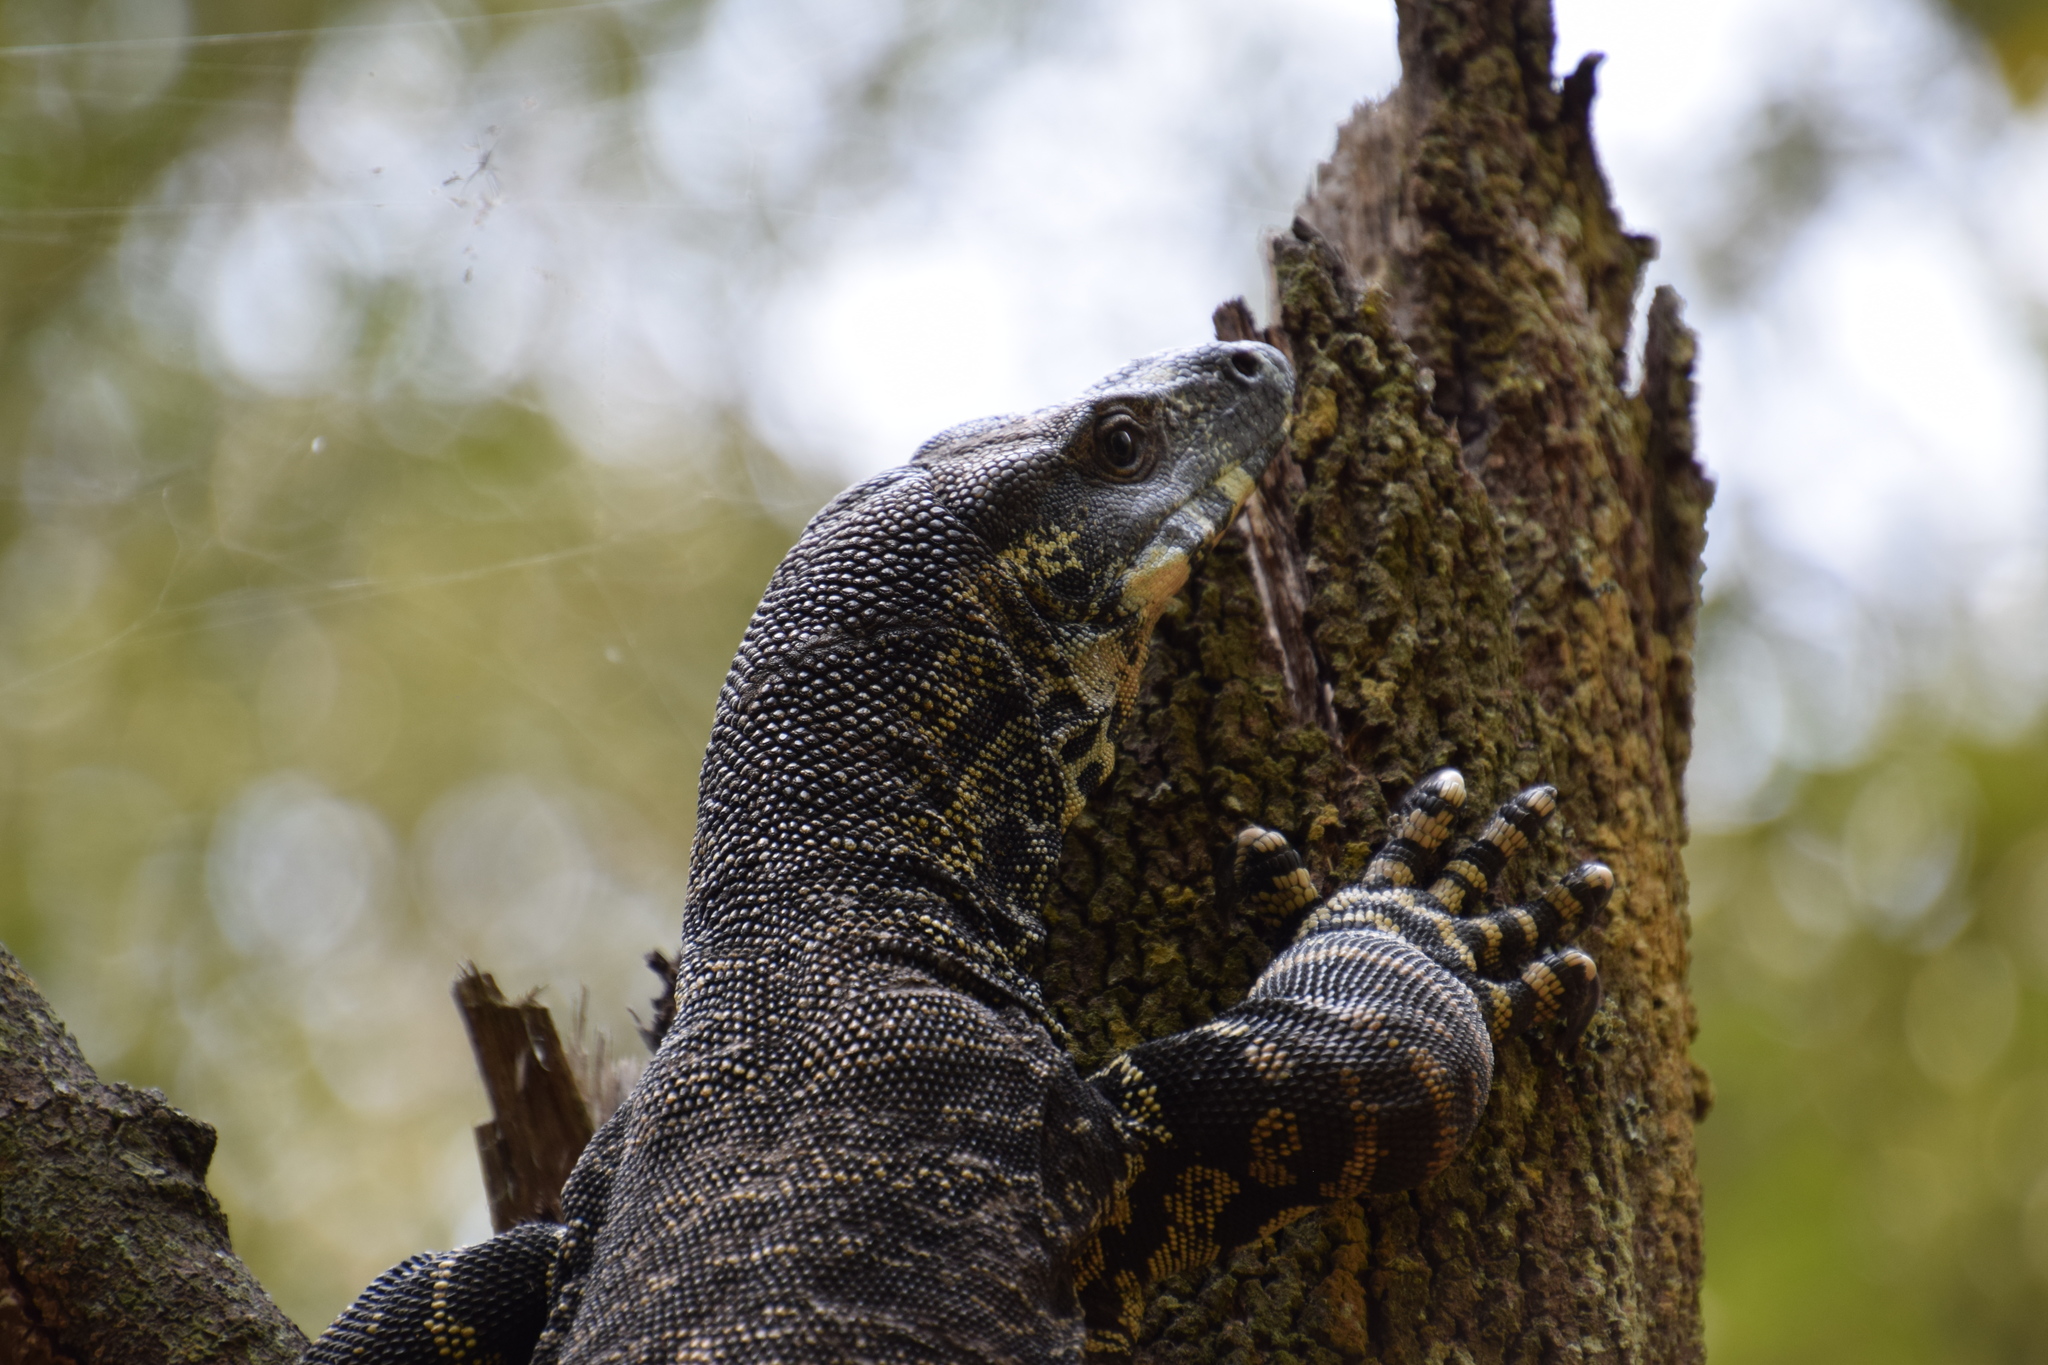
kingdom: Animalia
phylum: Chordata
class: Squamata
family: Varanidae
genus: Varanus
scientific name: Varanus varius
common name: Lace monitor
